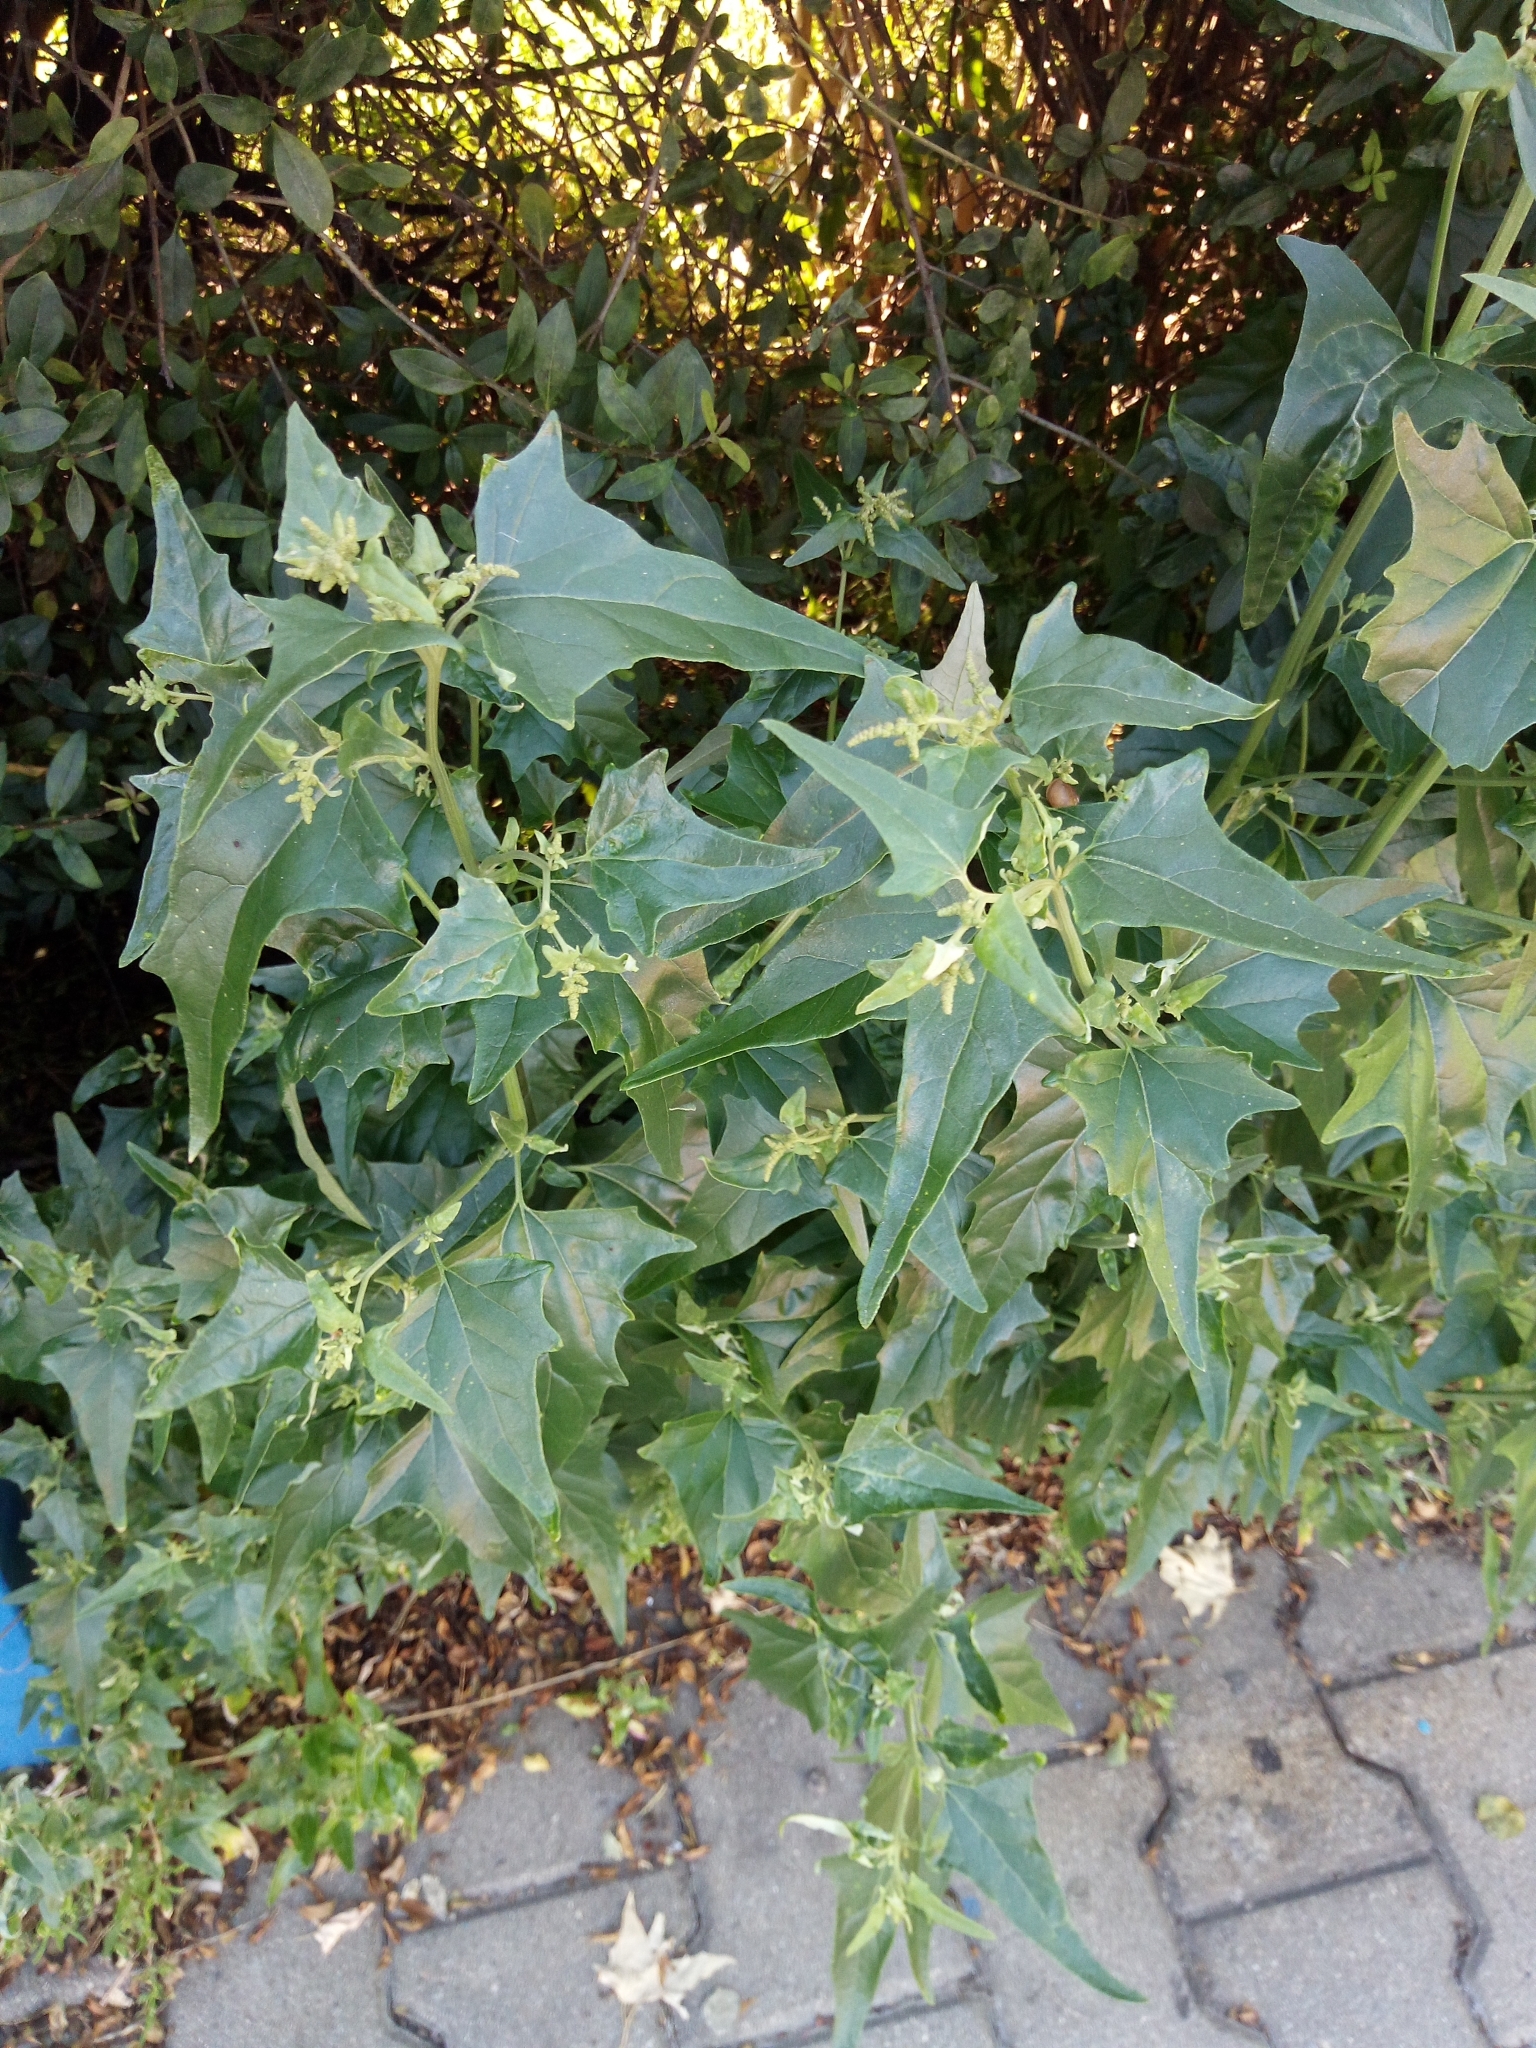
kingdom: Plantae
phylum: Tracheophyta
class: Magnoliopsida
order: Caryophyllales
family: Amaranthaceae
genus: Atriplex
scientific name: Atriplex sagittata
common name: Purple orache
